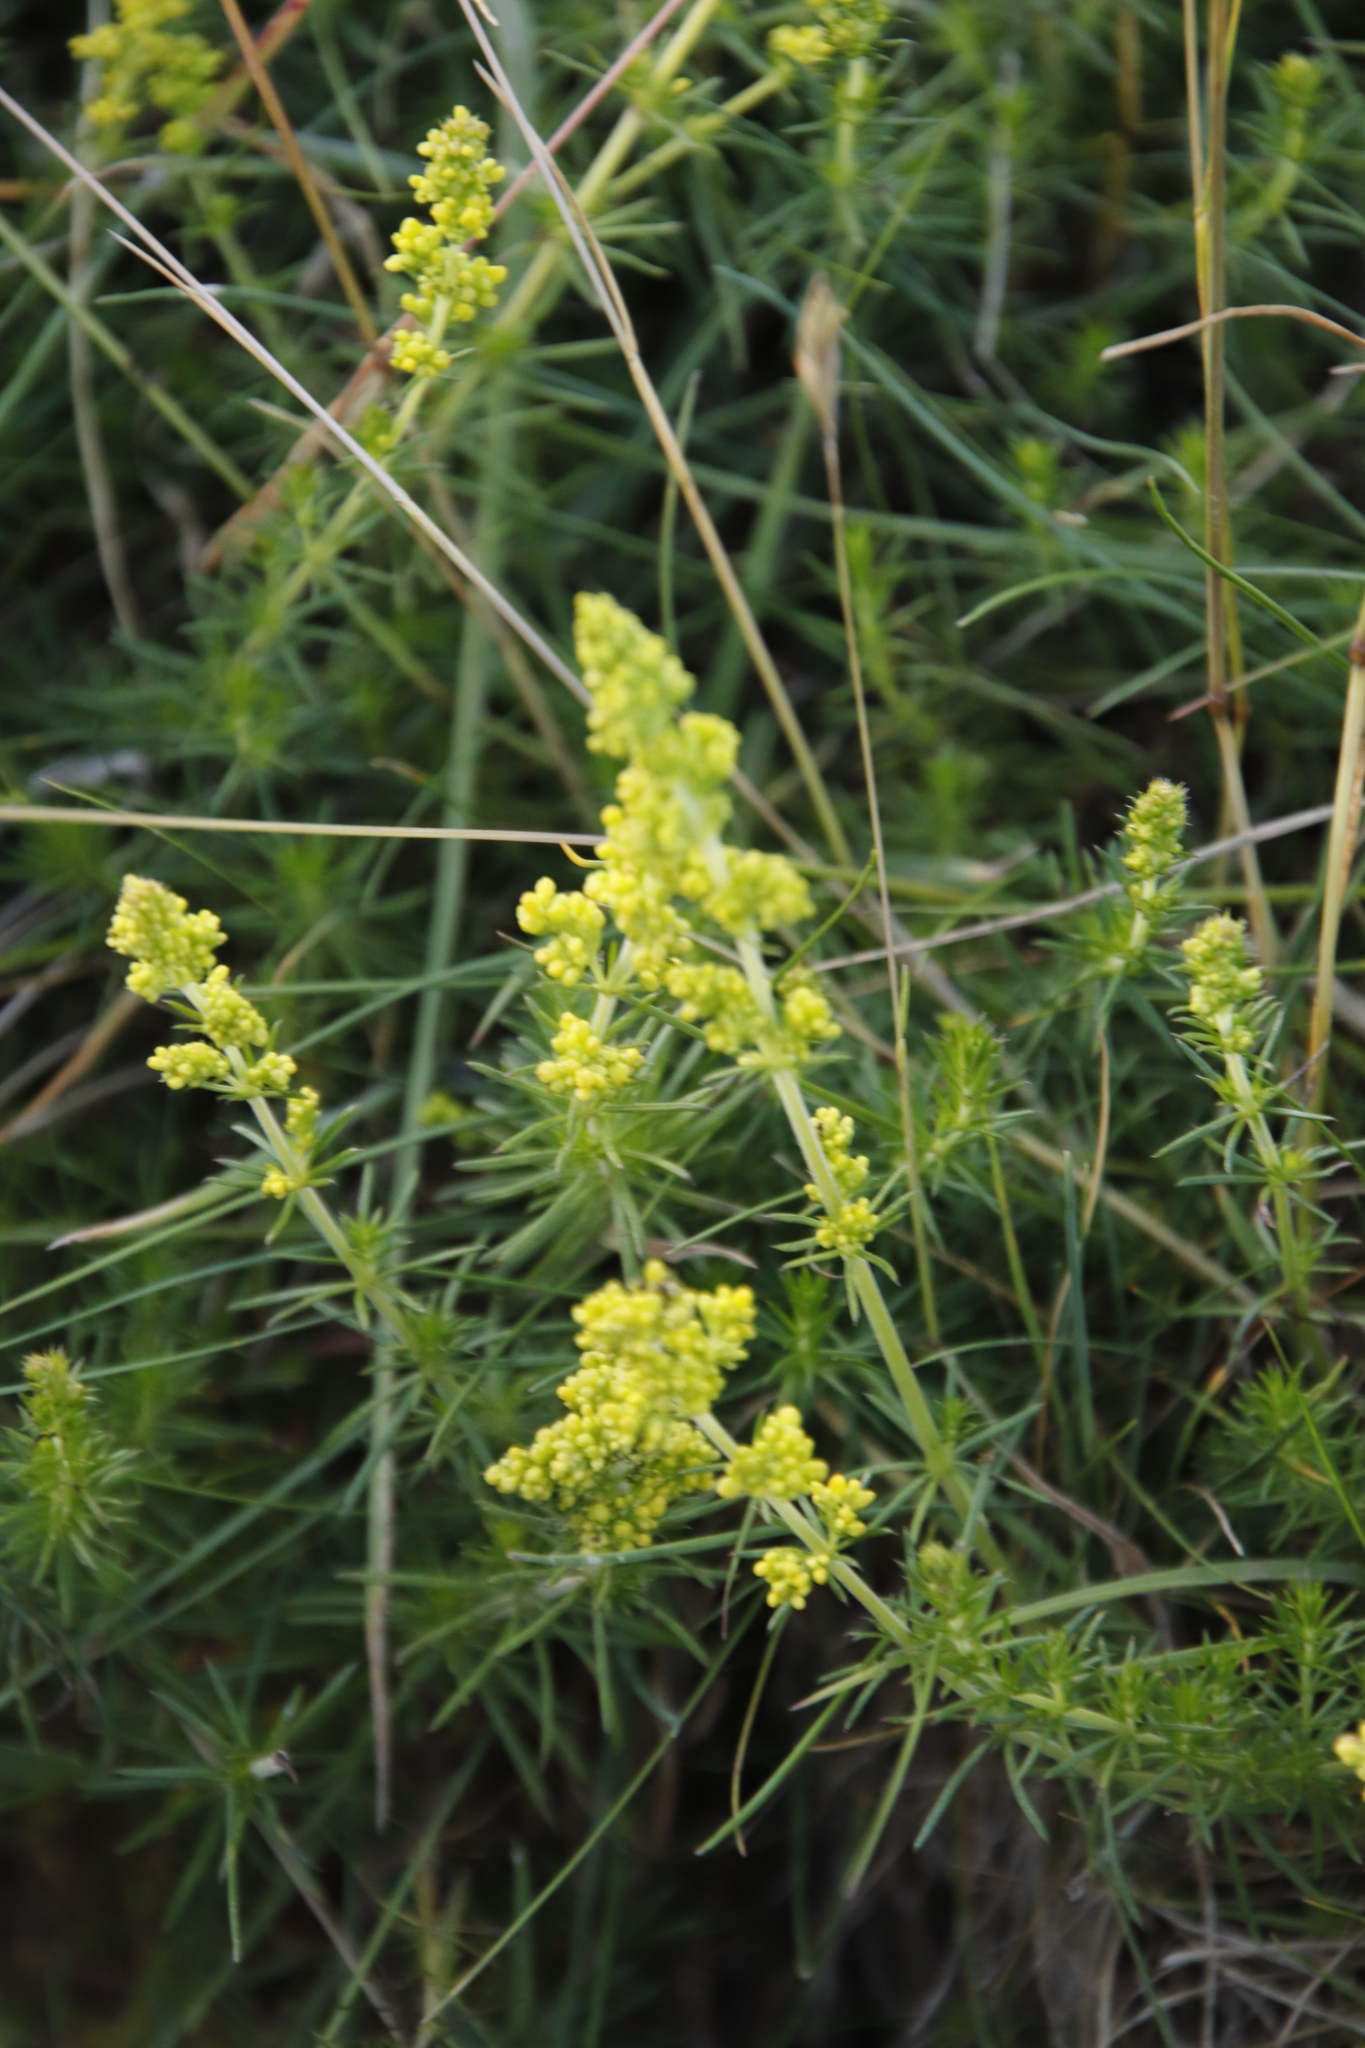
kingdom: Plantae
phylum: Tracheophyta
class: Magnoliopsida
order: Gentianales
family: Rubiaceae
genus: Galium
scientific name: Galium verum
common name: Lady's bedstraw
